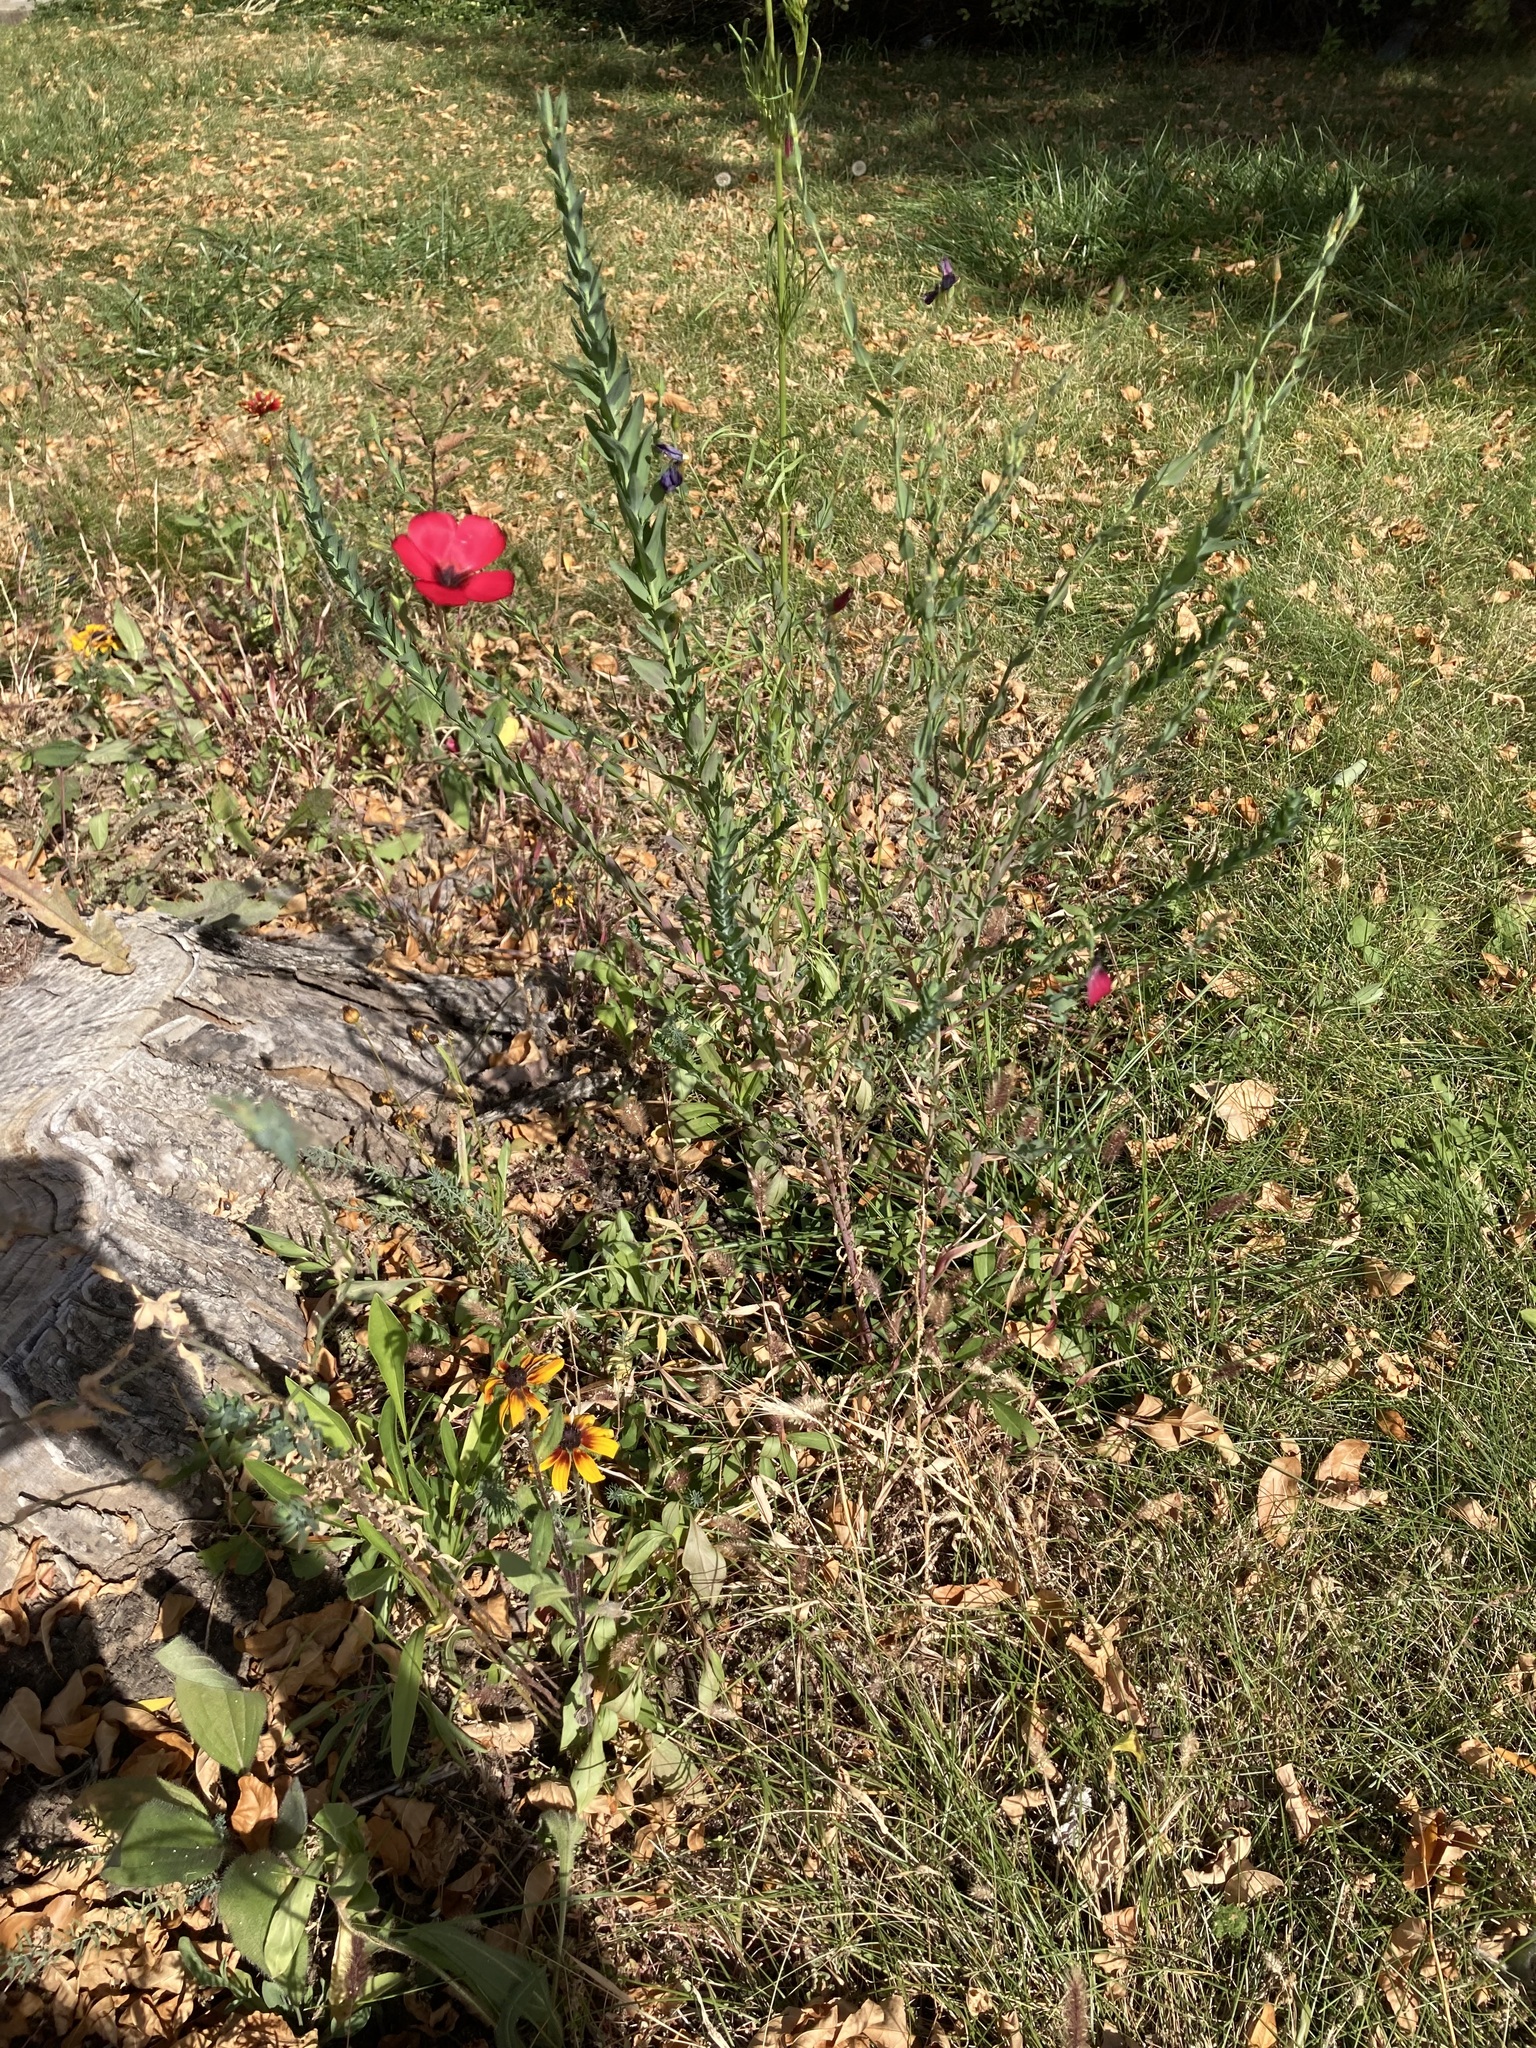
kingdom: Plantae
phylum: Tracheophyta
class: Magnoliopsida
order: Malpighiales
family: Linaceae
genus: Linum
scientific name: Linum grandiflorum
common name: Crimson flax
